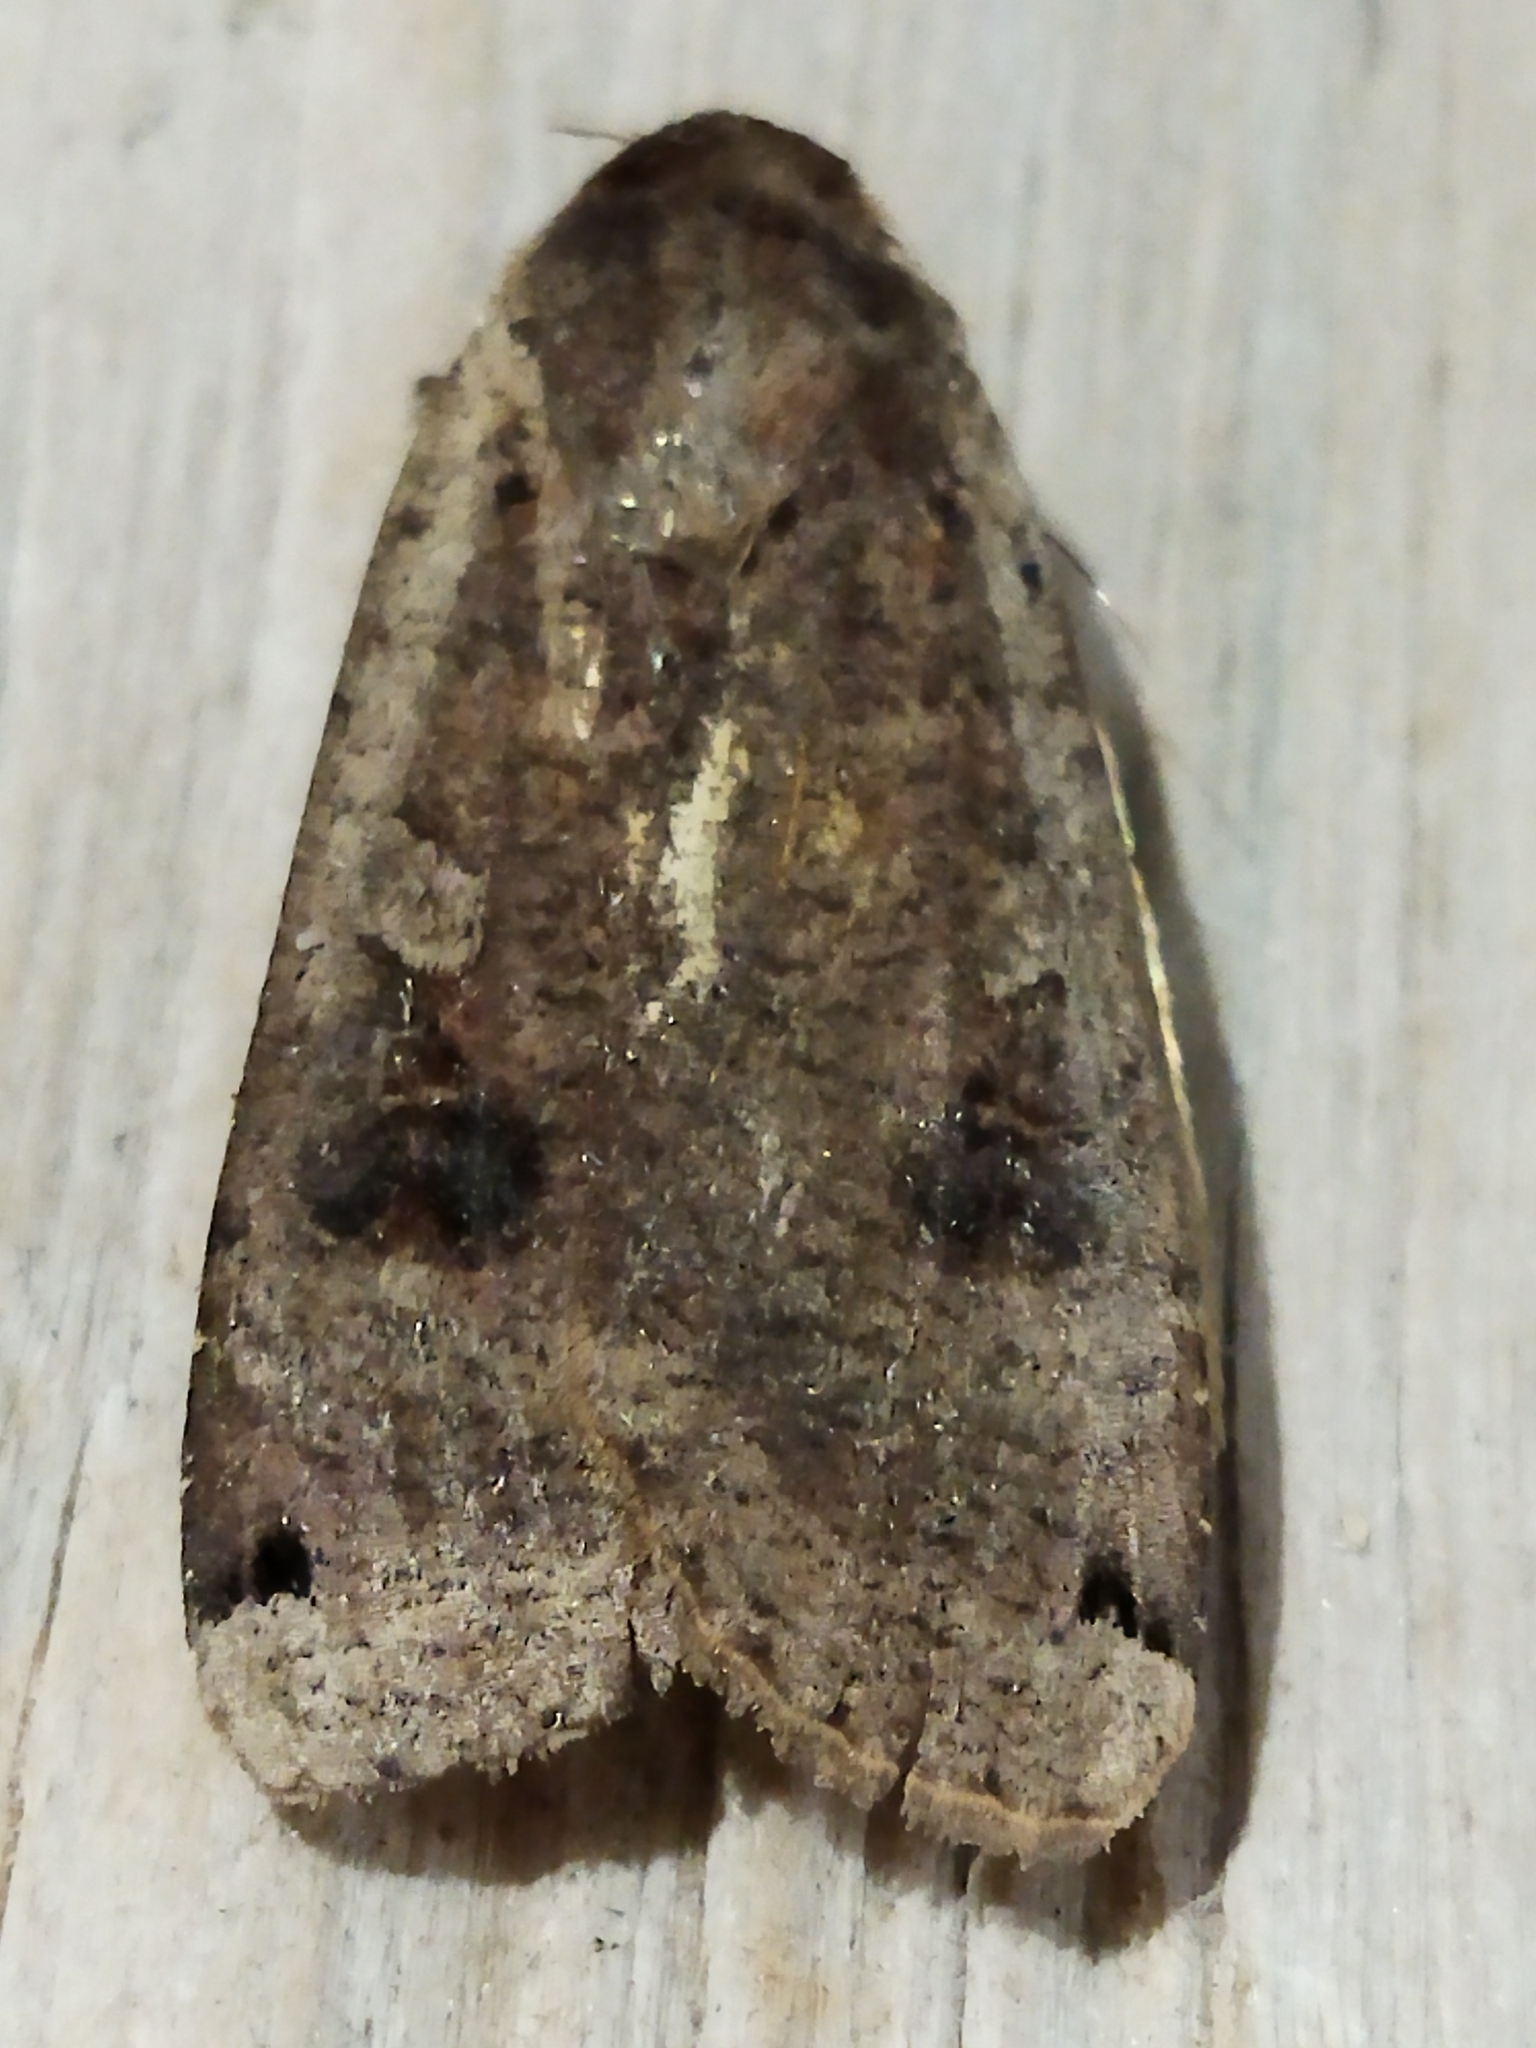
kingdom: Animalia
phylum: Arthropoda
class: Insecta
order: Lepidoptera
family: Noctuidae
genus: Noctua
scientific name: Noctua pronuba
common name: Large yellow underwing
